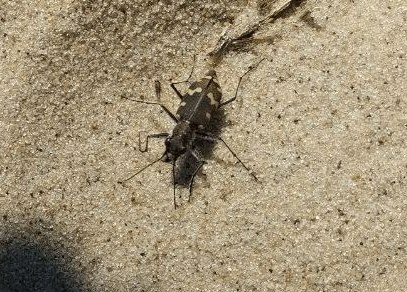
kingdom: Animalia
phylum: Arthropoda
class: Insecta
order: Coleoptera
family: Carabidae
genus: Cicindela
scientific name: Cicindela hybrida
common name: Northern dune tiger beetle
